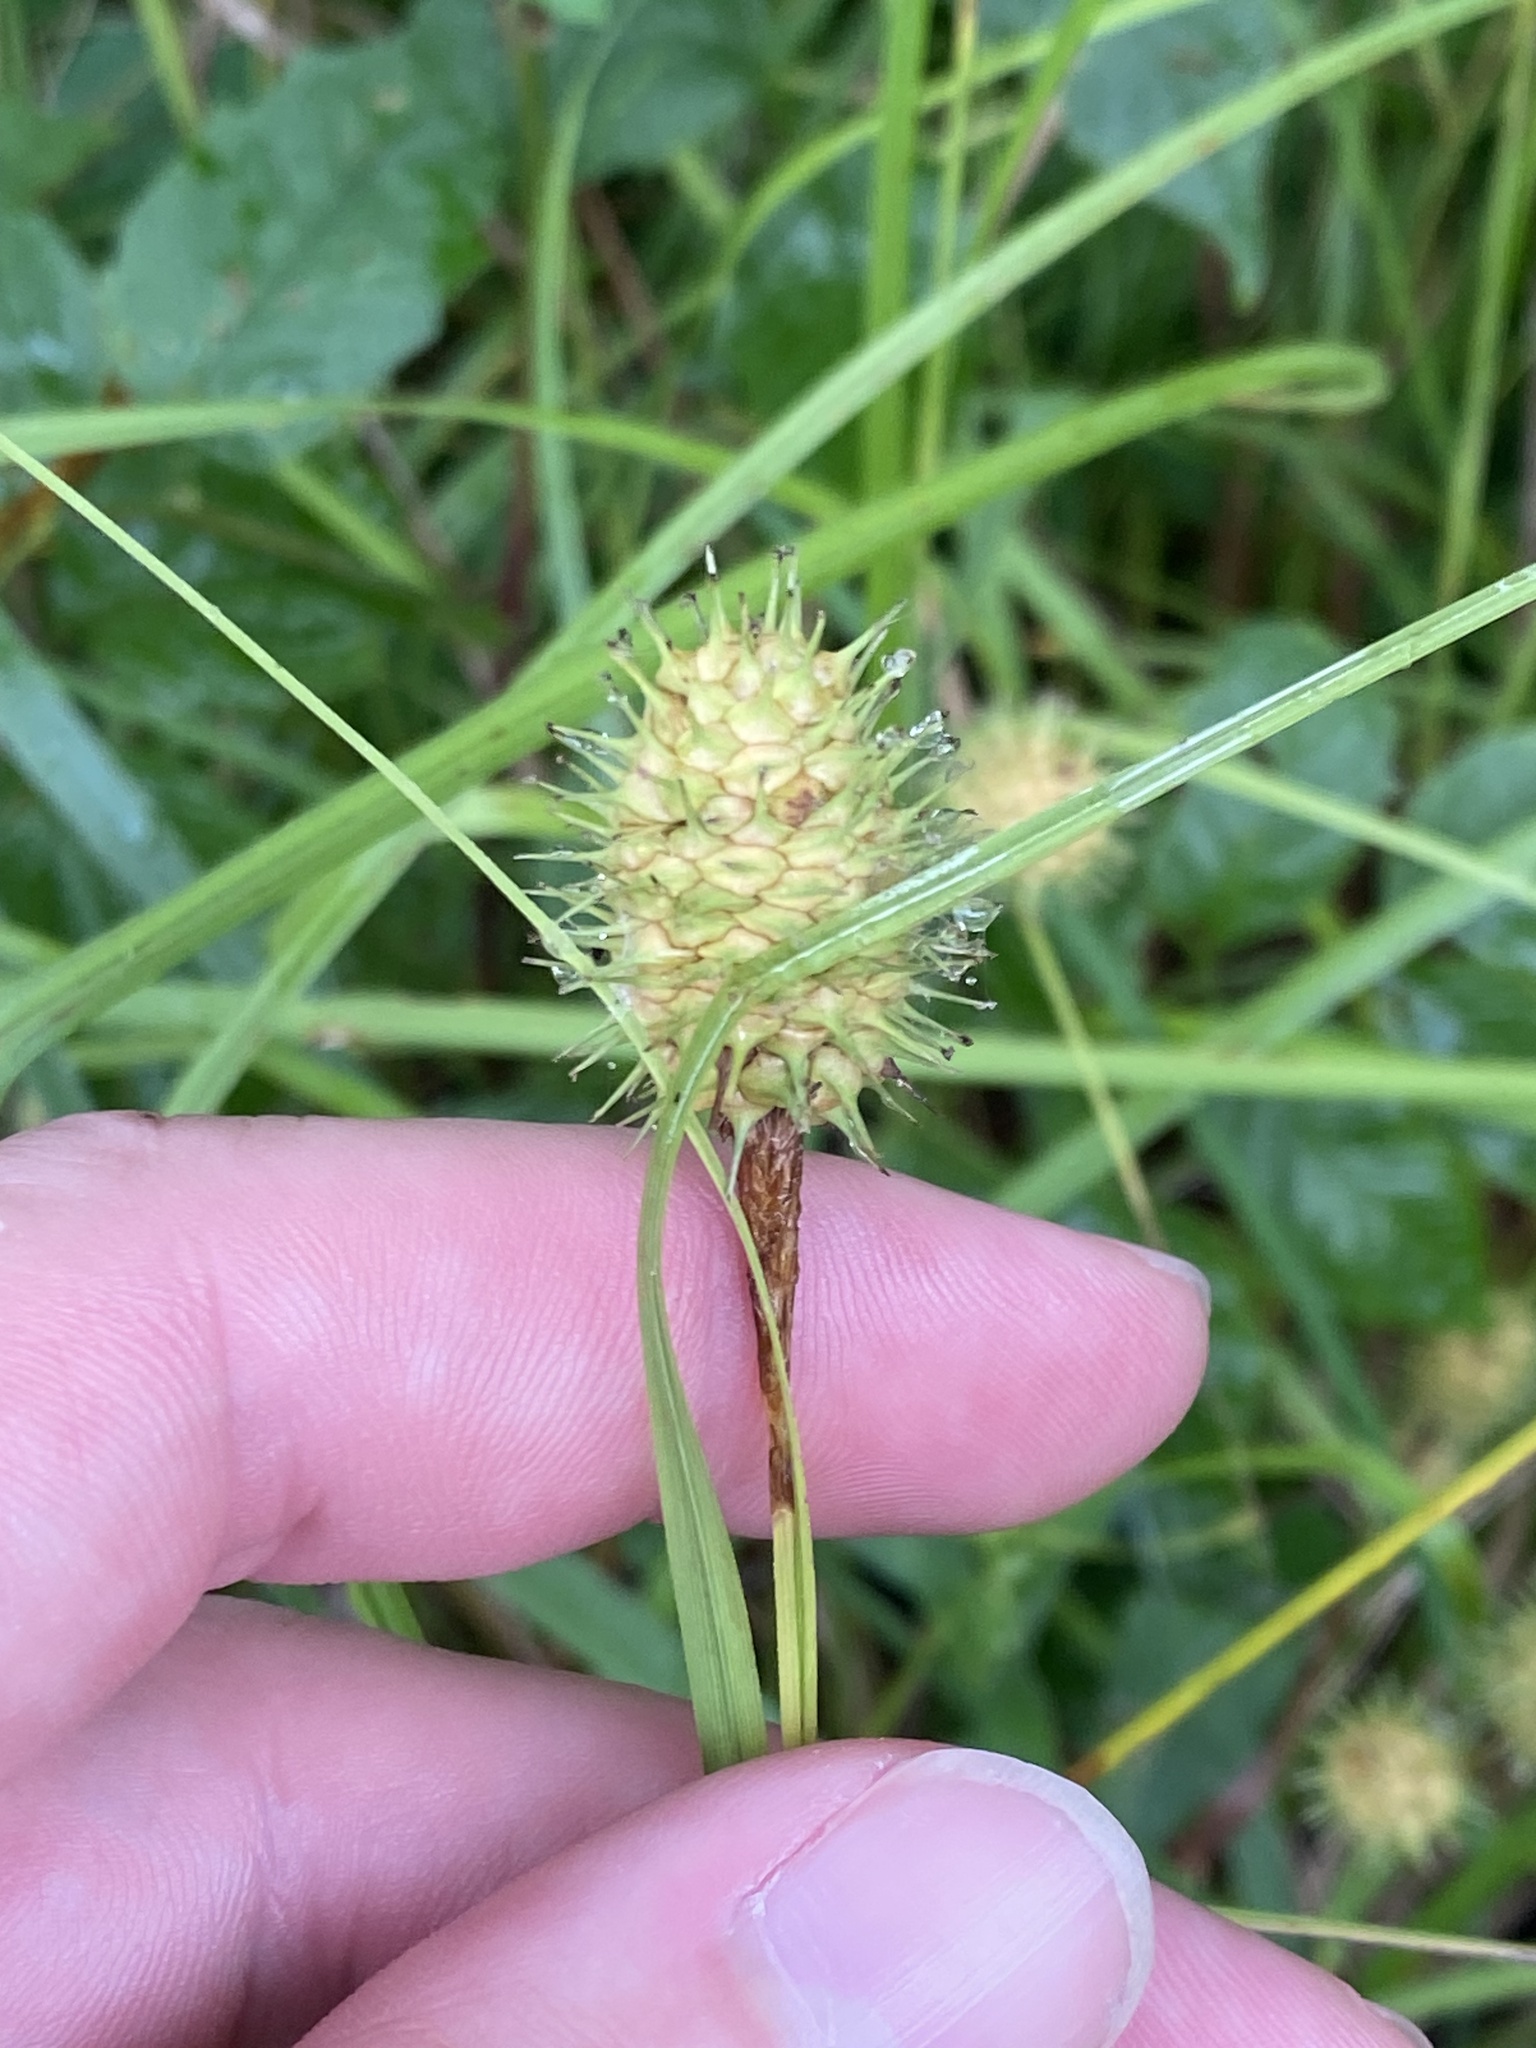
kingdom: Plantae
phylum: Tracheophyta
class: Liliopsida
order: Poales
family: Cyperaceae
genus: Carex
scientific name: Carex squarrosa
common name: Narrow-leaved cattail sedge
